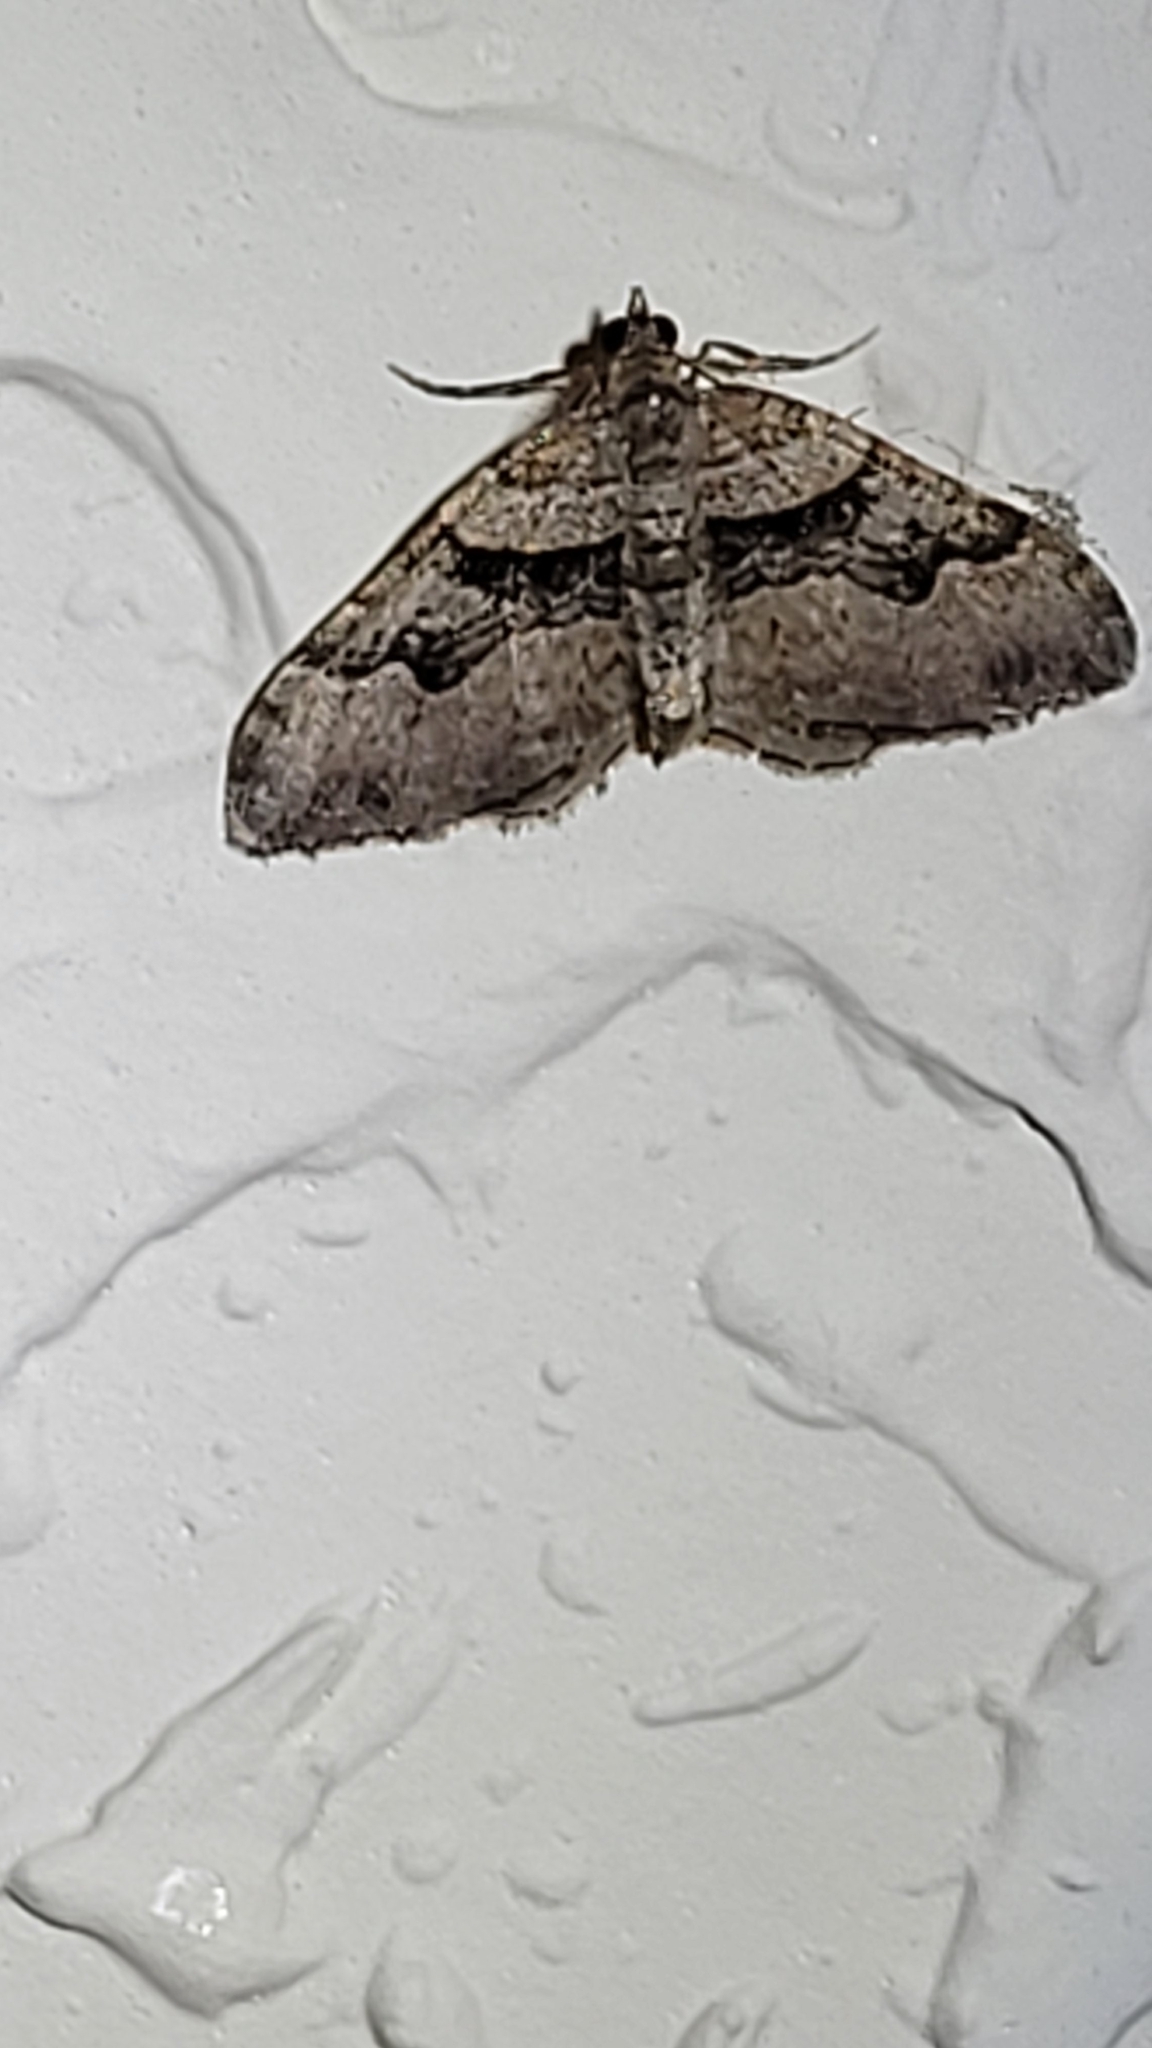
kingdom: Animalia
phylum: Arthropoda
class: Insecta
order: Lepidoptera
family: Geometridae
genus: Xanthorhoe
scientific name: Xanthorhoe defensaria
